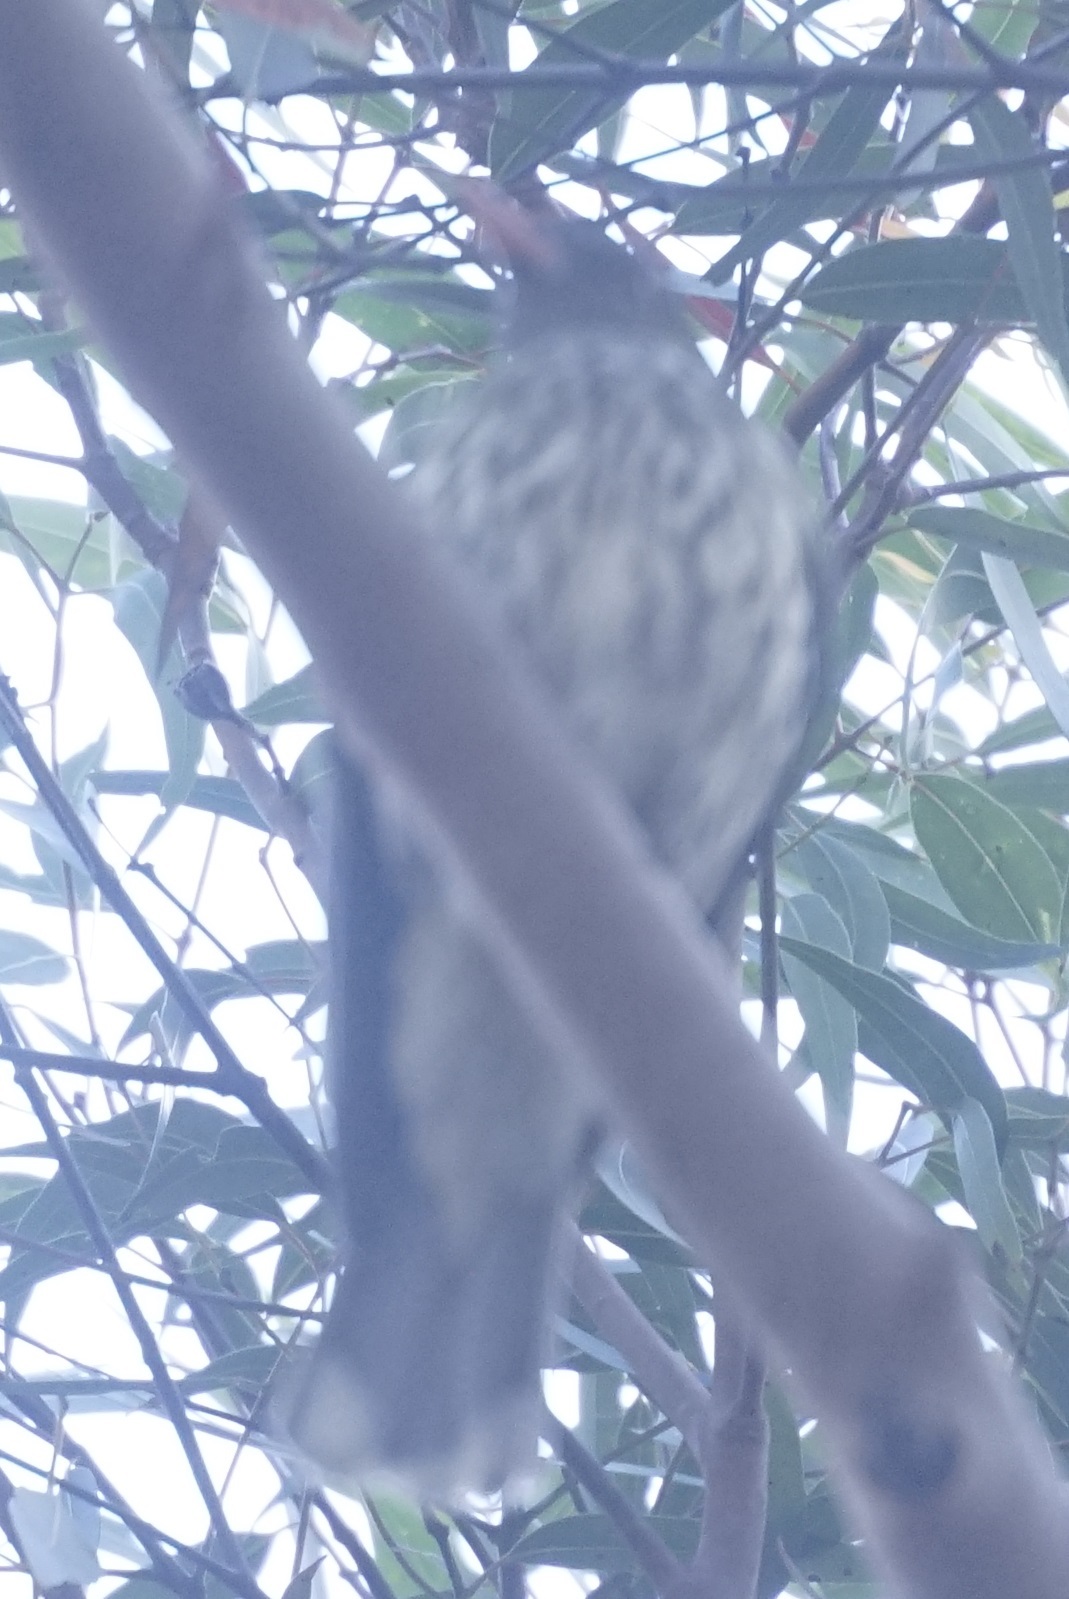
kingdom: Animalia
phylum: Chordata
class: Aves
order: Passeriformes
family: Oriolidae
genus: Oriolus
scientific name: Oriolus sagittatus
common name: Olive-backed oriole
